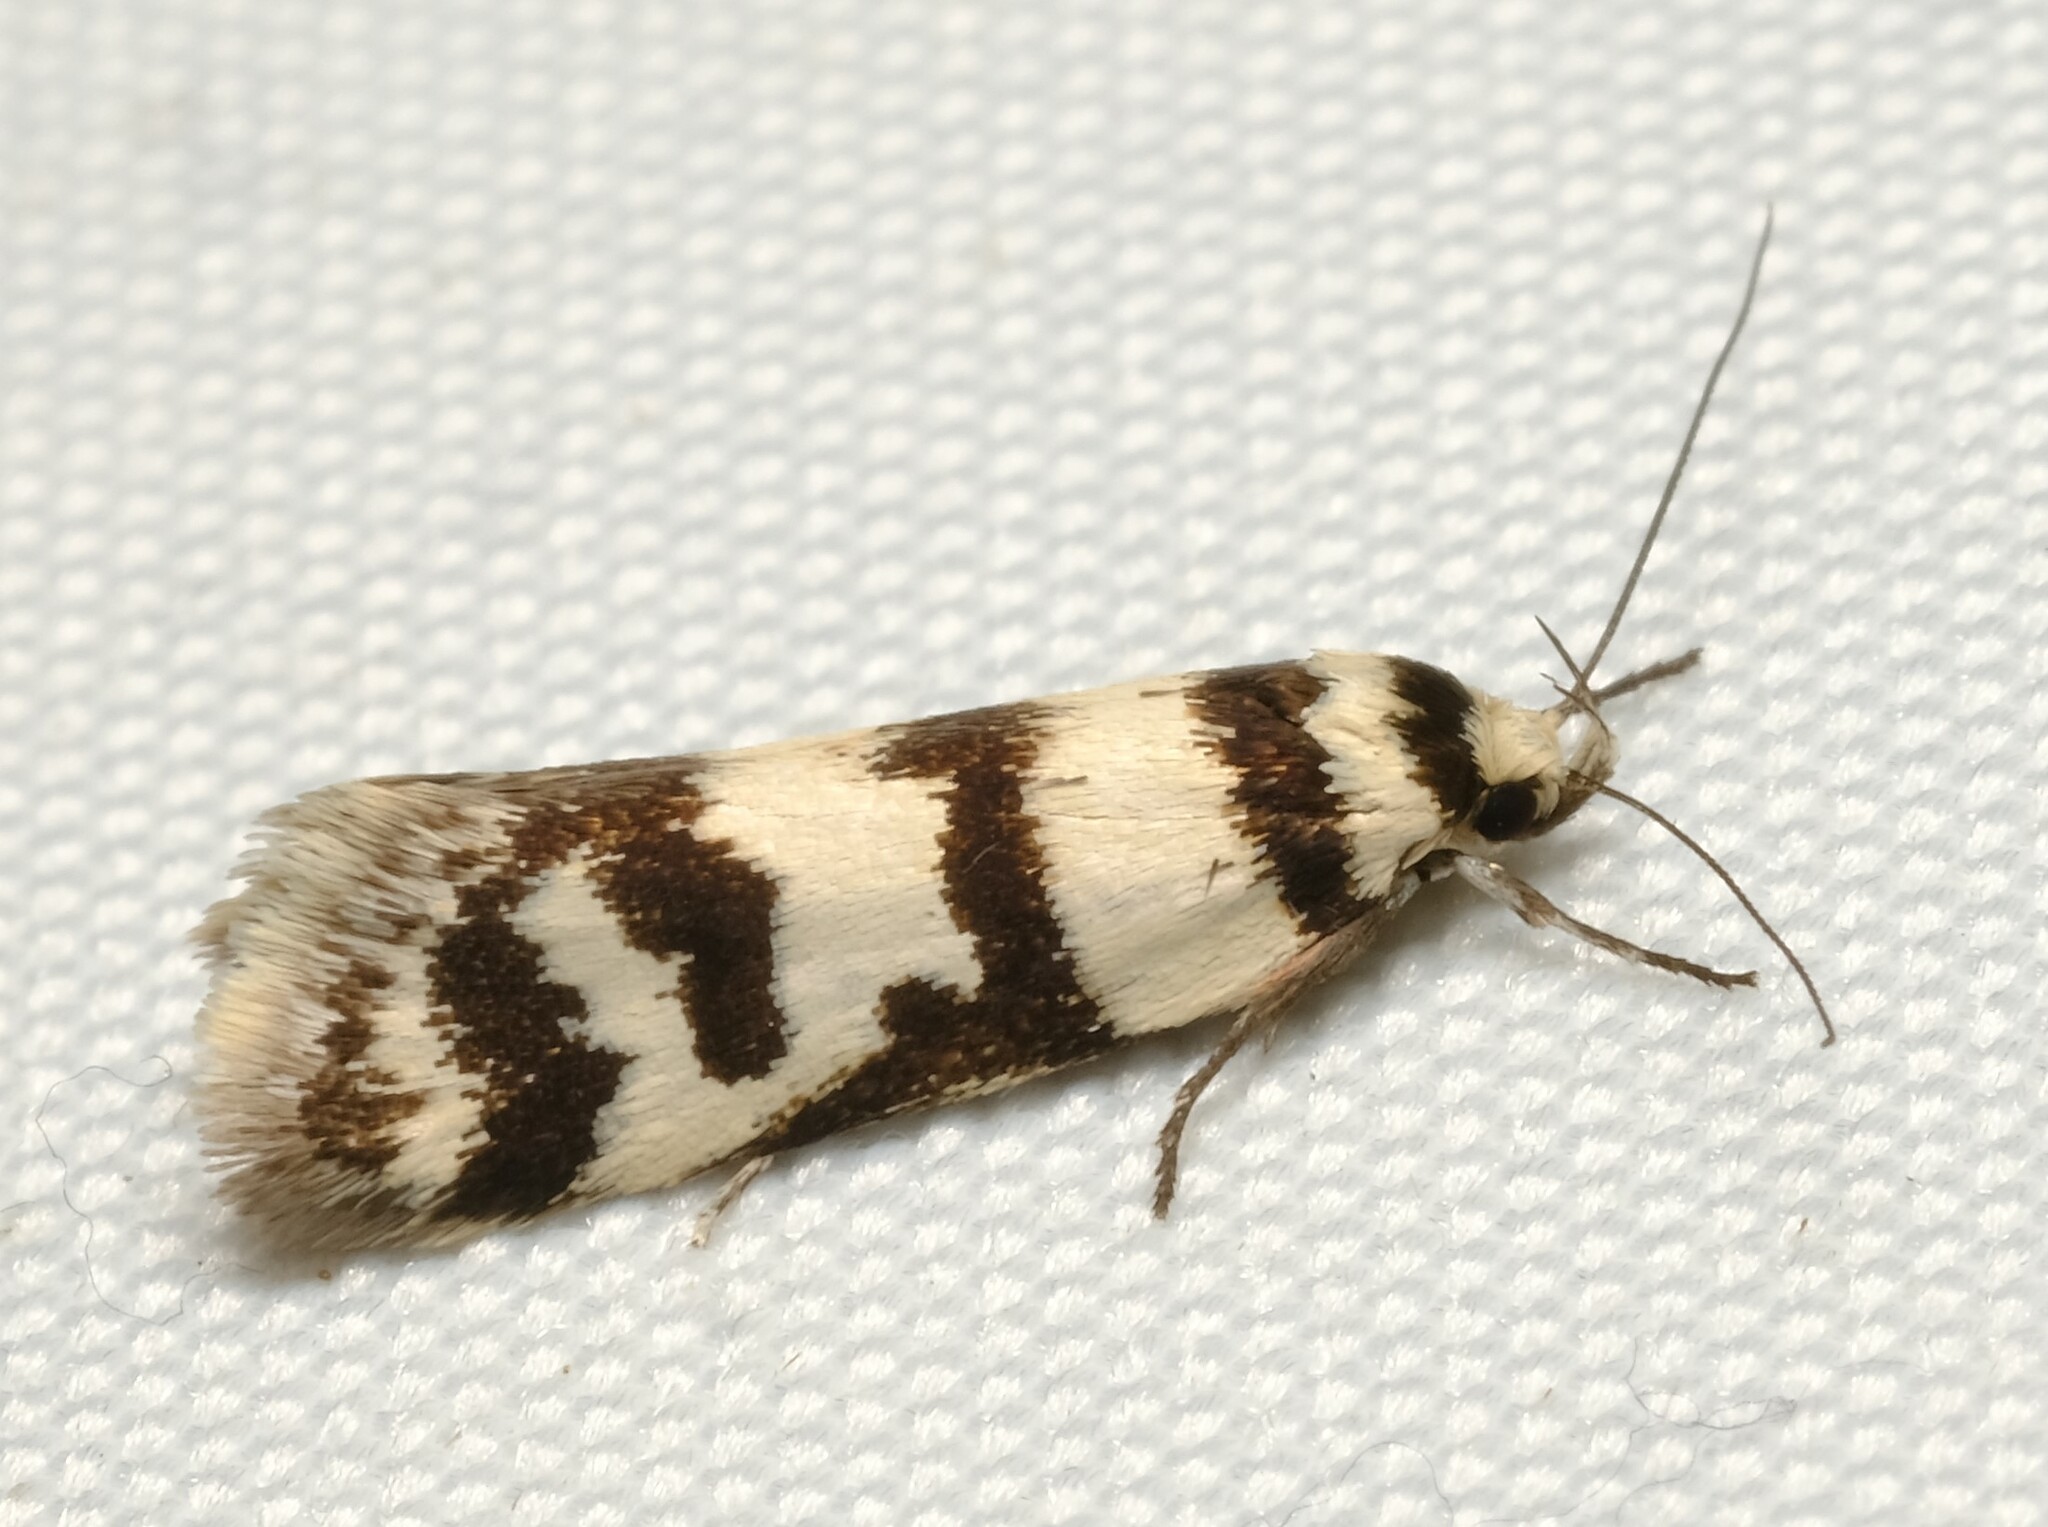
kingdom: Animalia
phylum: Arthropoda
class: Insecta
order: Lepidoptera
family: Oecophoridae
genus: Philobota
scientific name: Philobota impletella
